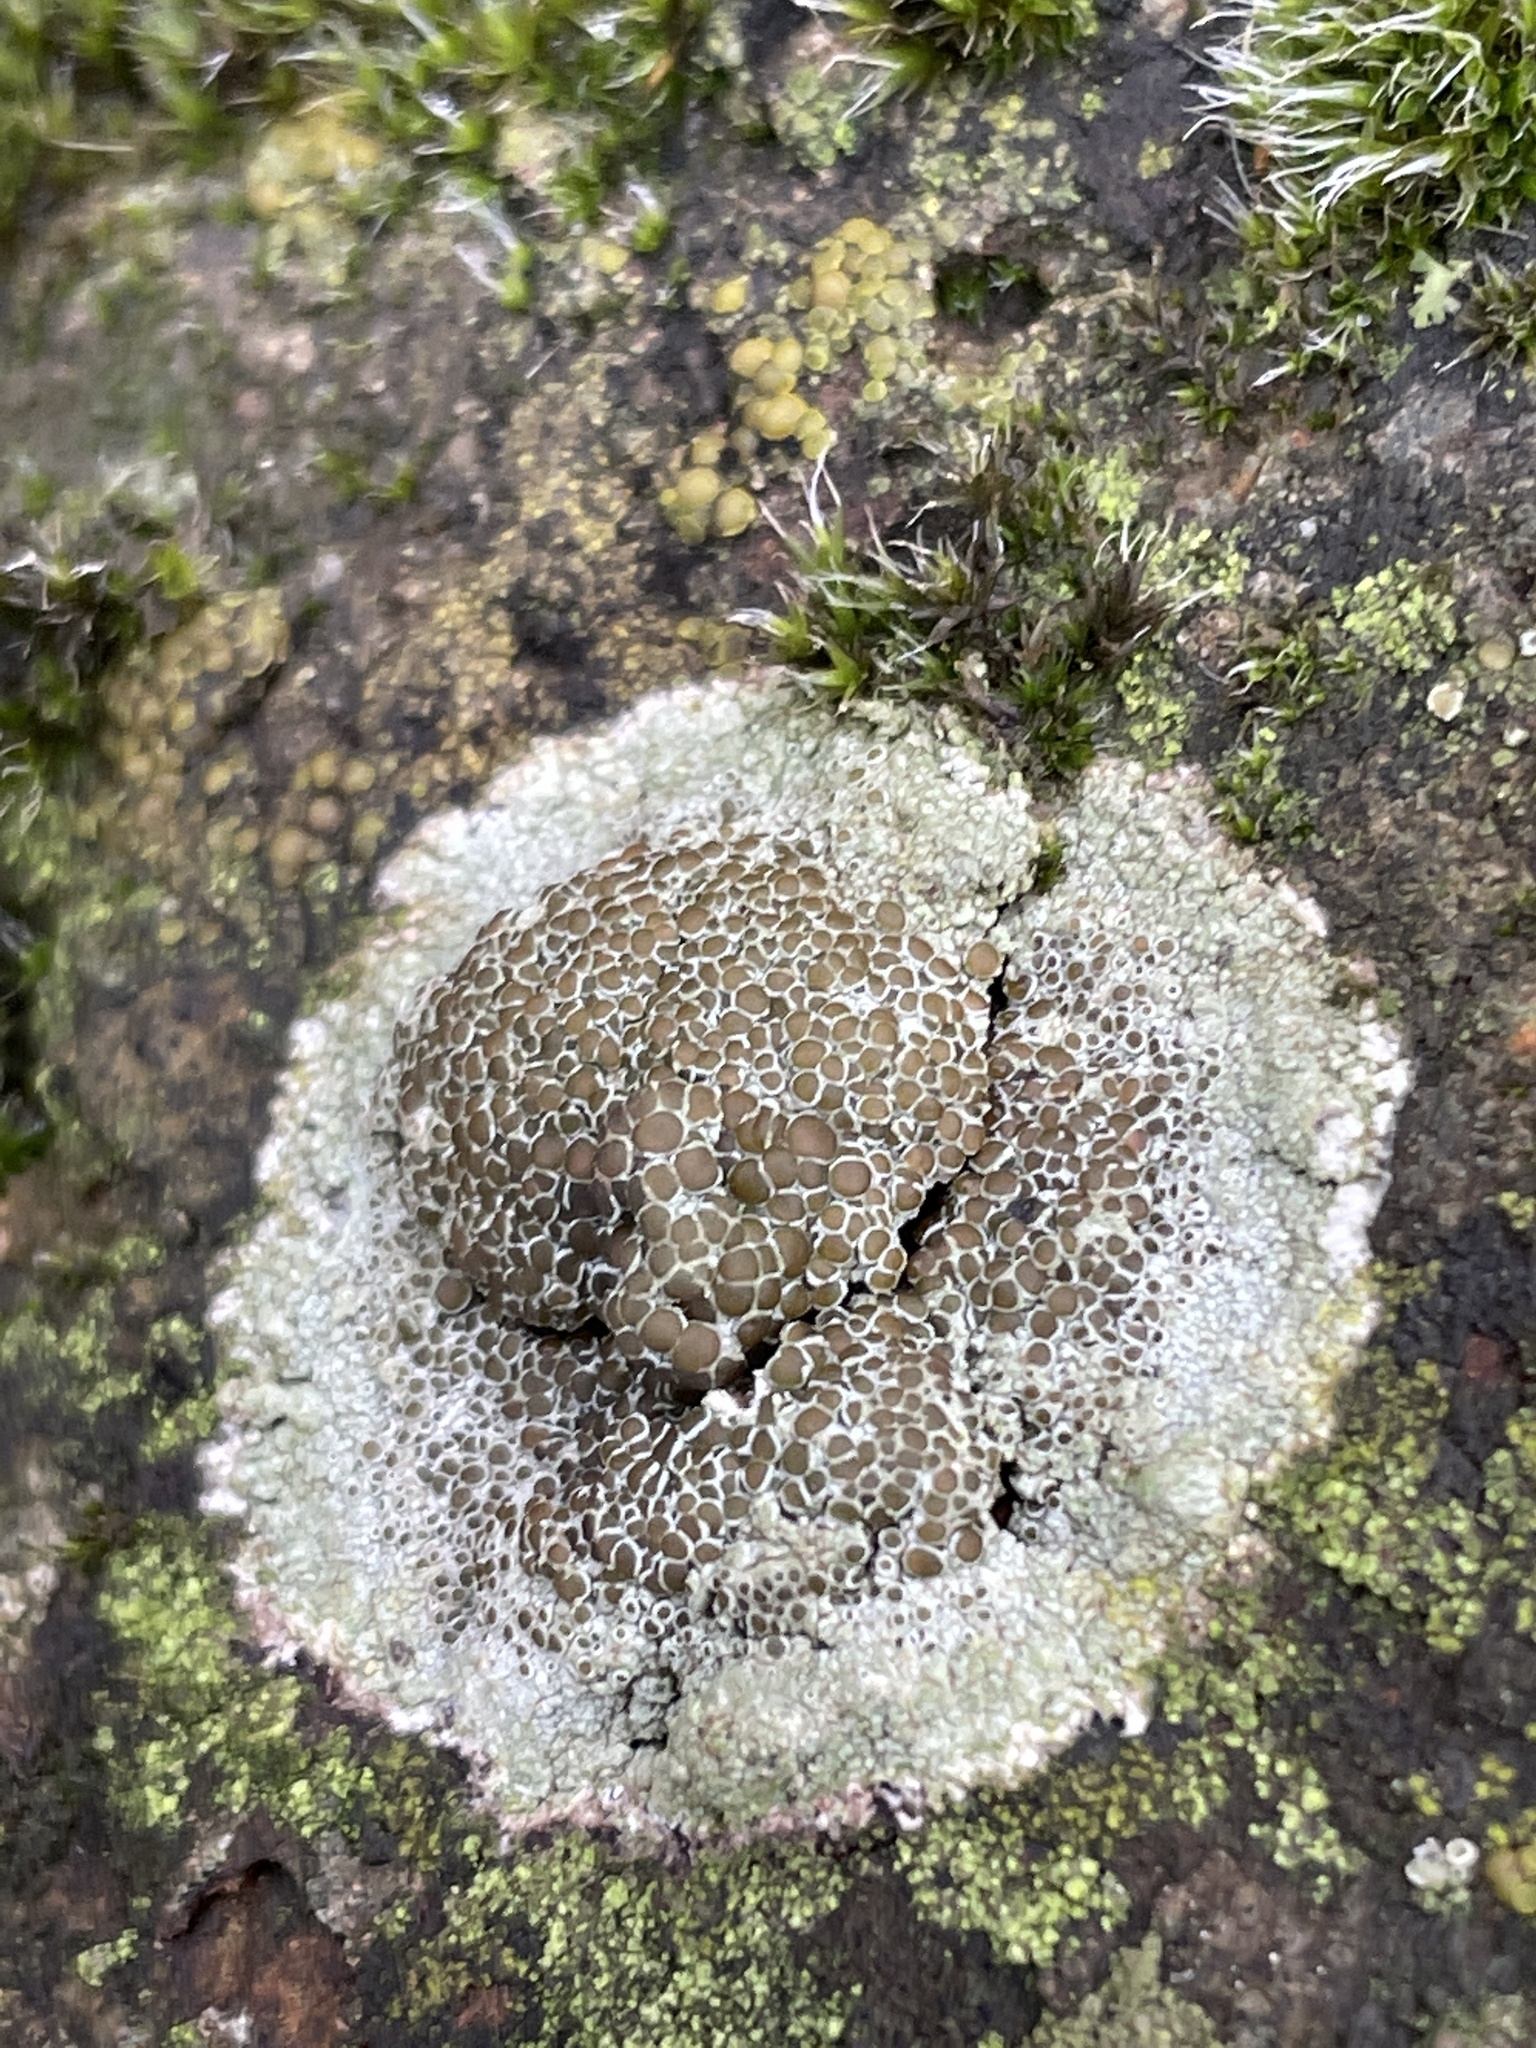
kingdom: Fungi
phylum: Ascomycota
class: Lecanoromycetes
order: Lecanorales
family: Lecanoraceae
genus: Lecanora
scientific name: Lecanora campestris
